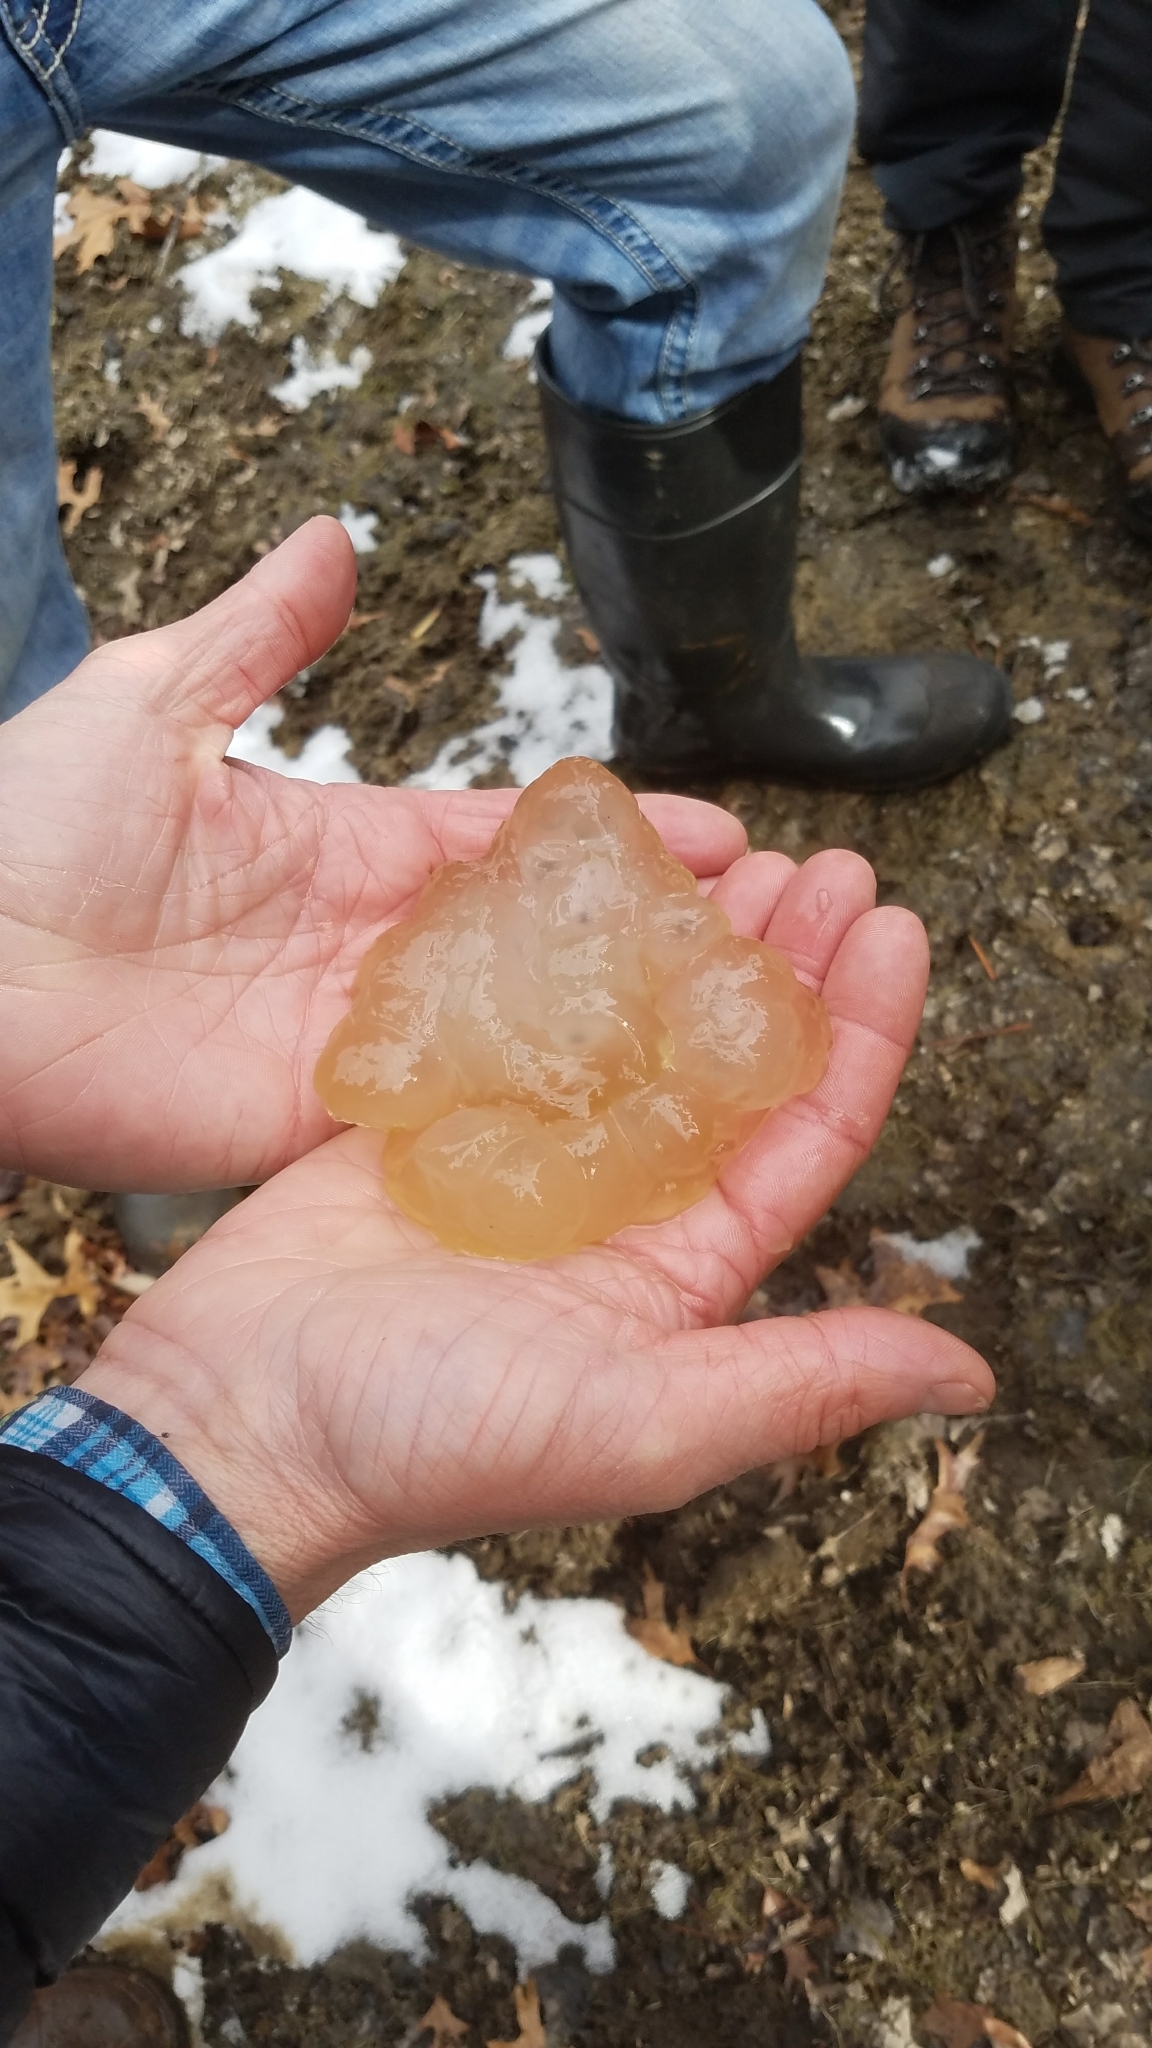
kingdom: Animalia
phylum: Chordata
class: Amphibia
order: Caudata
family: Ambystomatidae
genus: Ambystoma
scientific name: Ambystoma maculatum
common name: Spotted salamander
